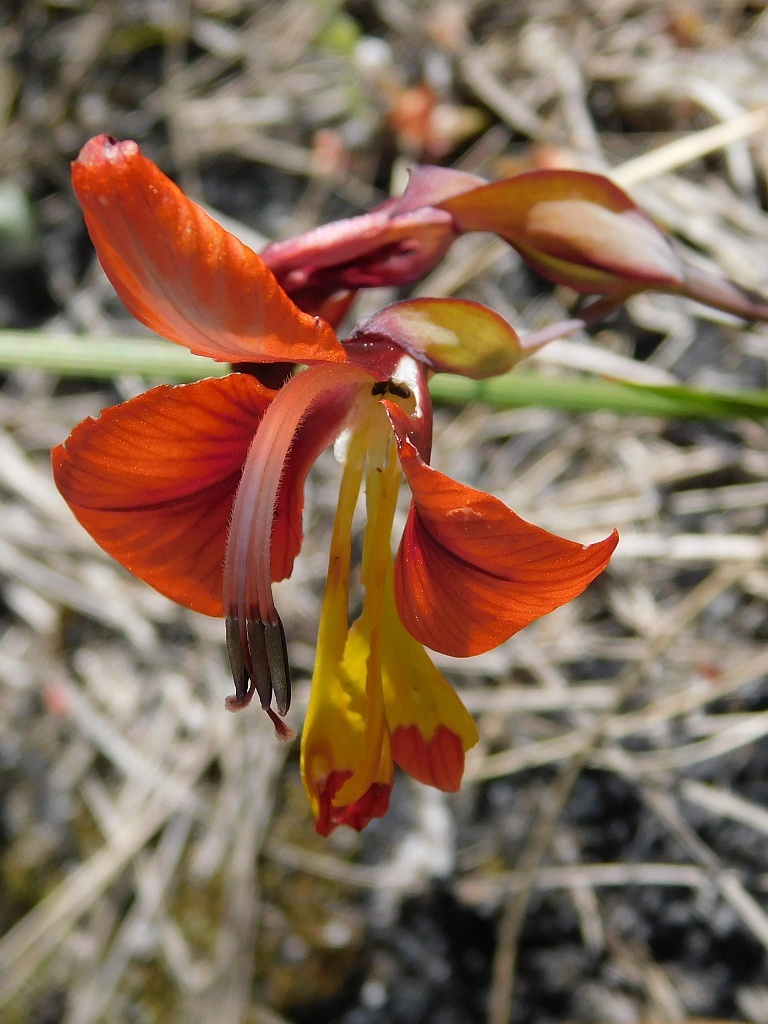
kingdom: Plantae
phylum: Tracheophyta
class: Liliopsida
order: Asparagales
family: Iridaceae
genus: Gladiolus
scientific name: Gladiolus alatus
